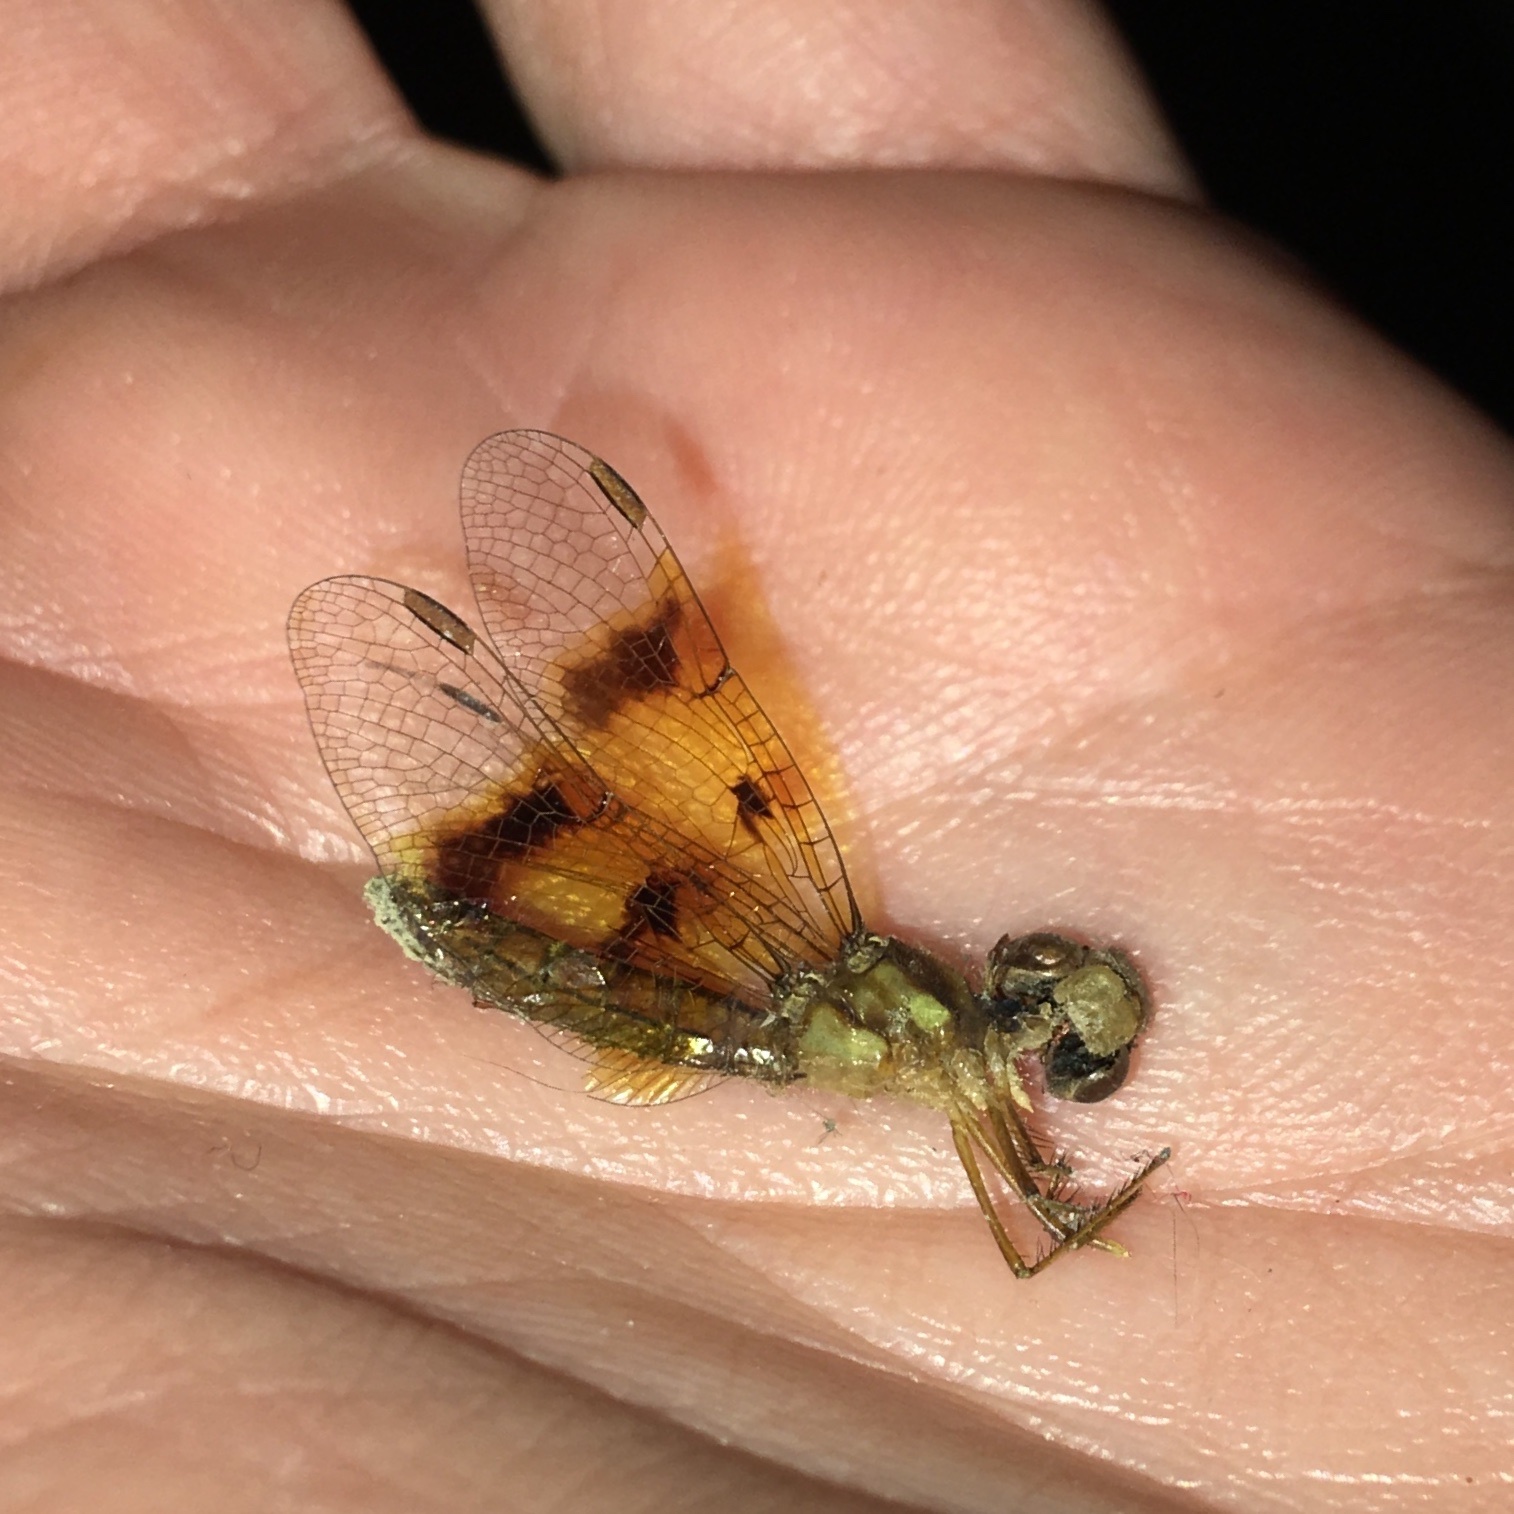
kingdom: Animalia
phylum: Arthropoda
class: Insecta
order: Odonata
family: Libellulidae
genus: Perithemis
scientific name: Perithemis tenera
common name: Eastern amberwing
